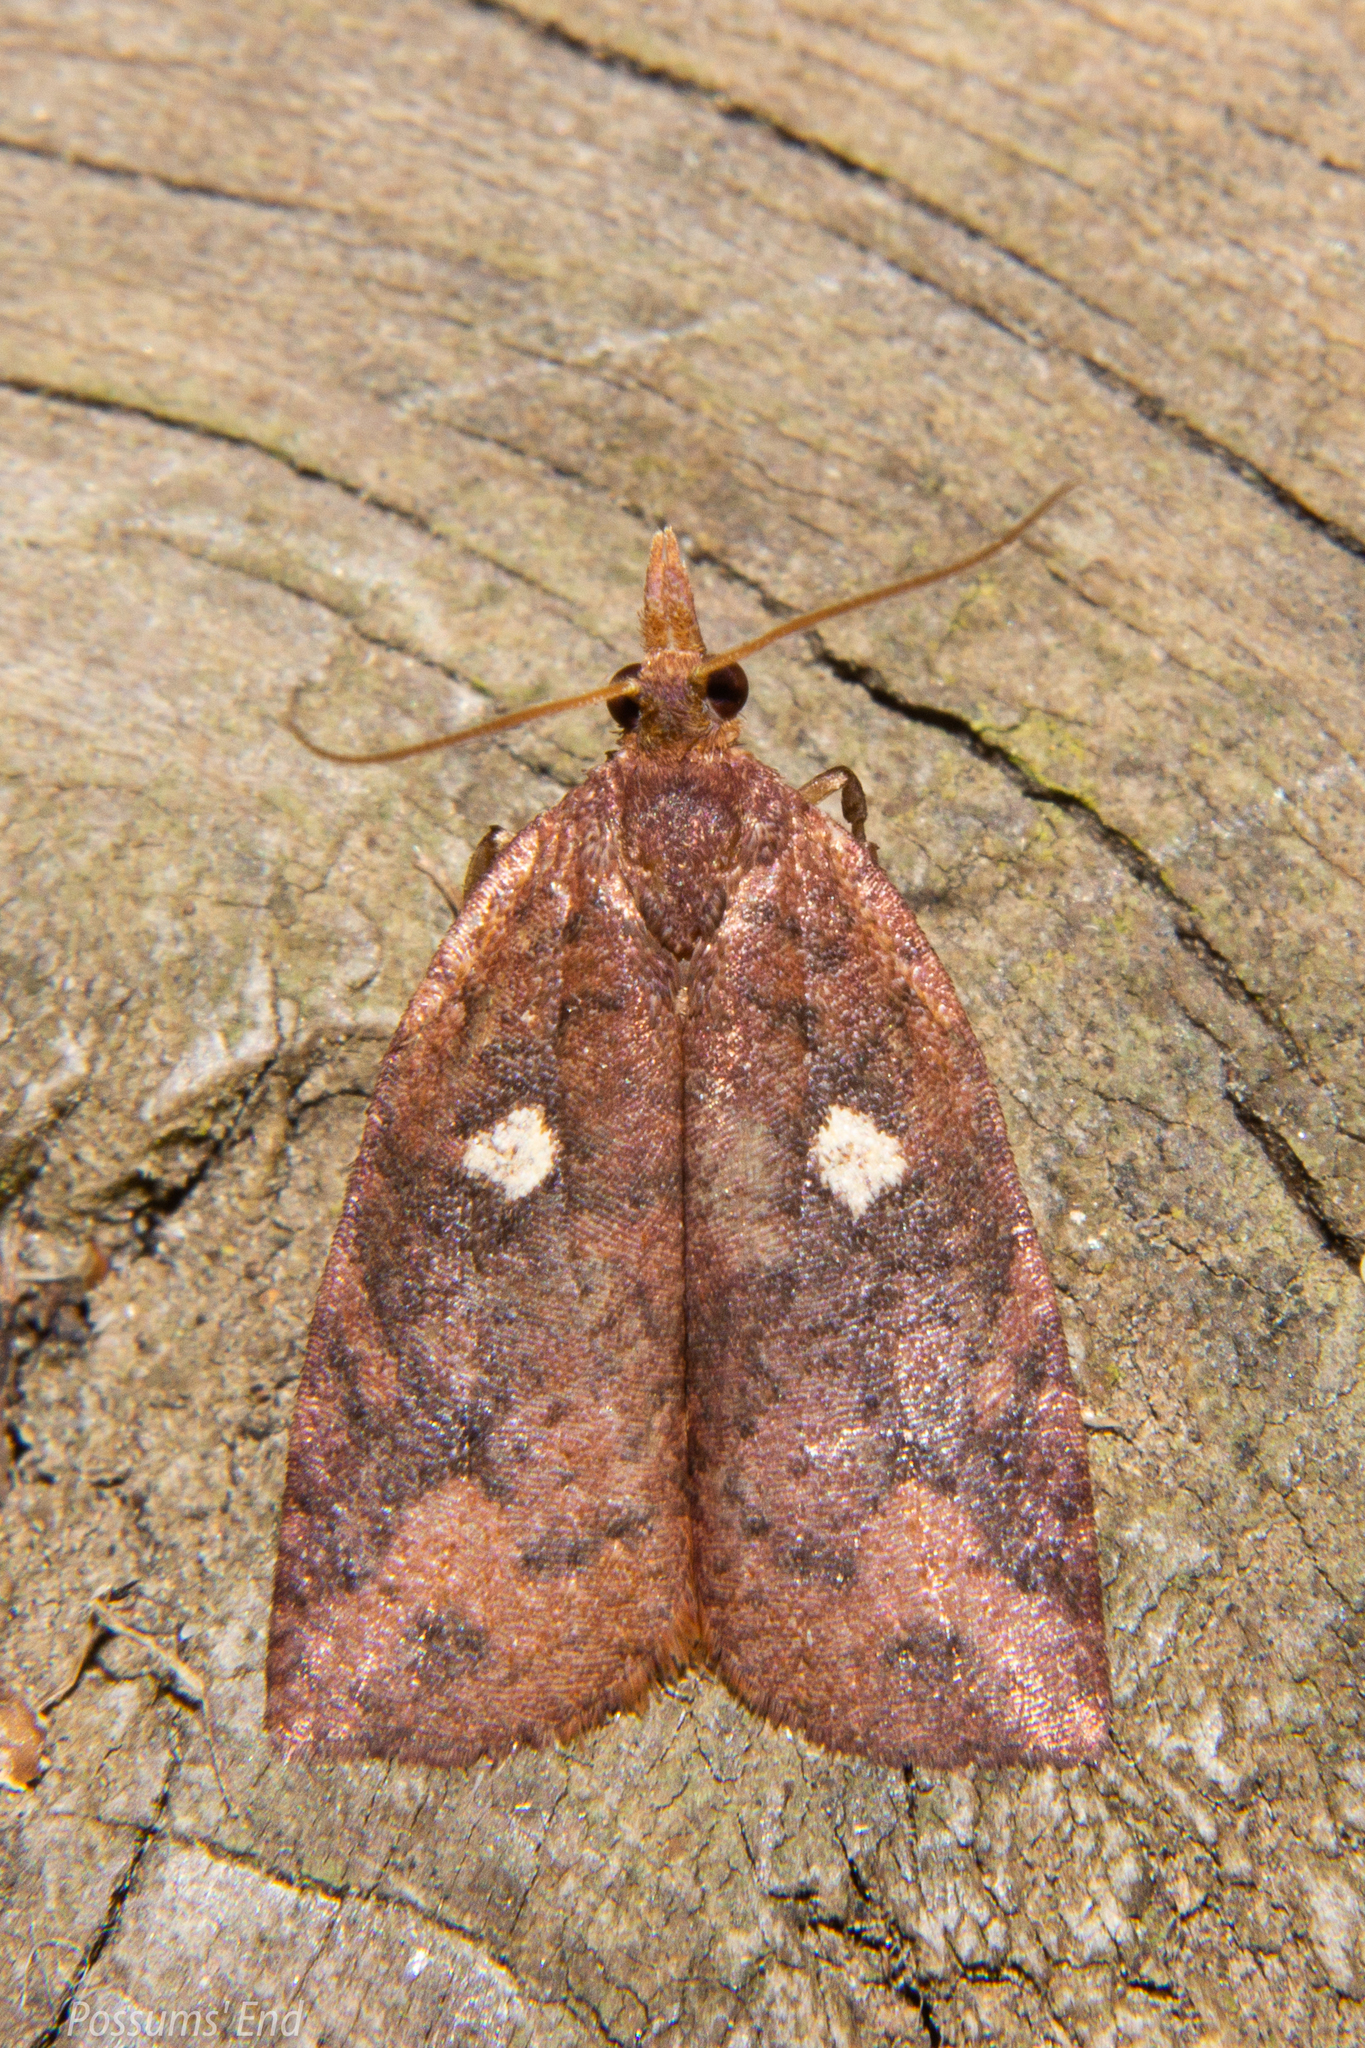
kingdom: Animalia
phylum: Arthropoda
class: Insecta
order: Lepidoptera
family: Tortricidae
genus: Planotortrix
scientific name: Planotortrix excessana
